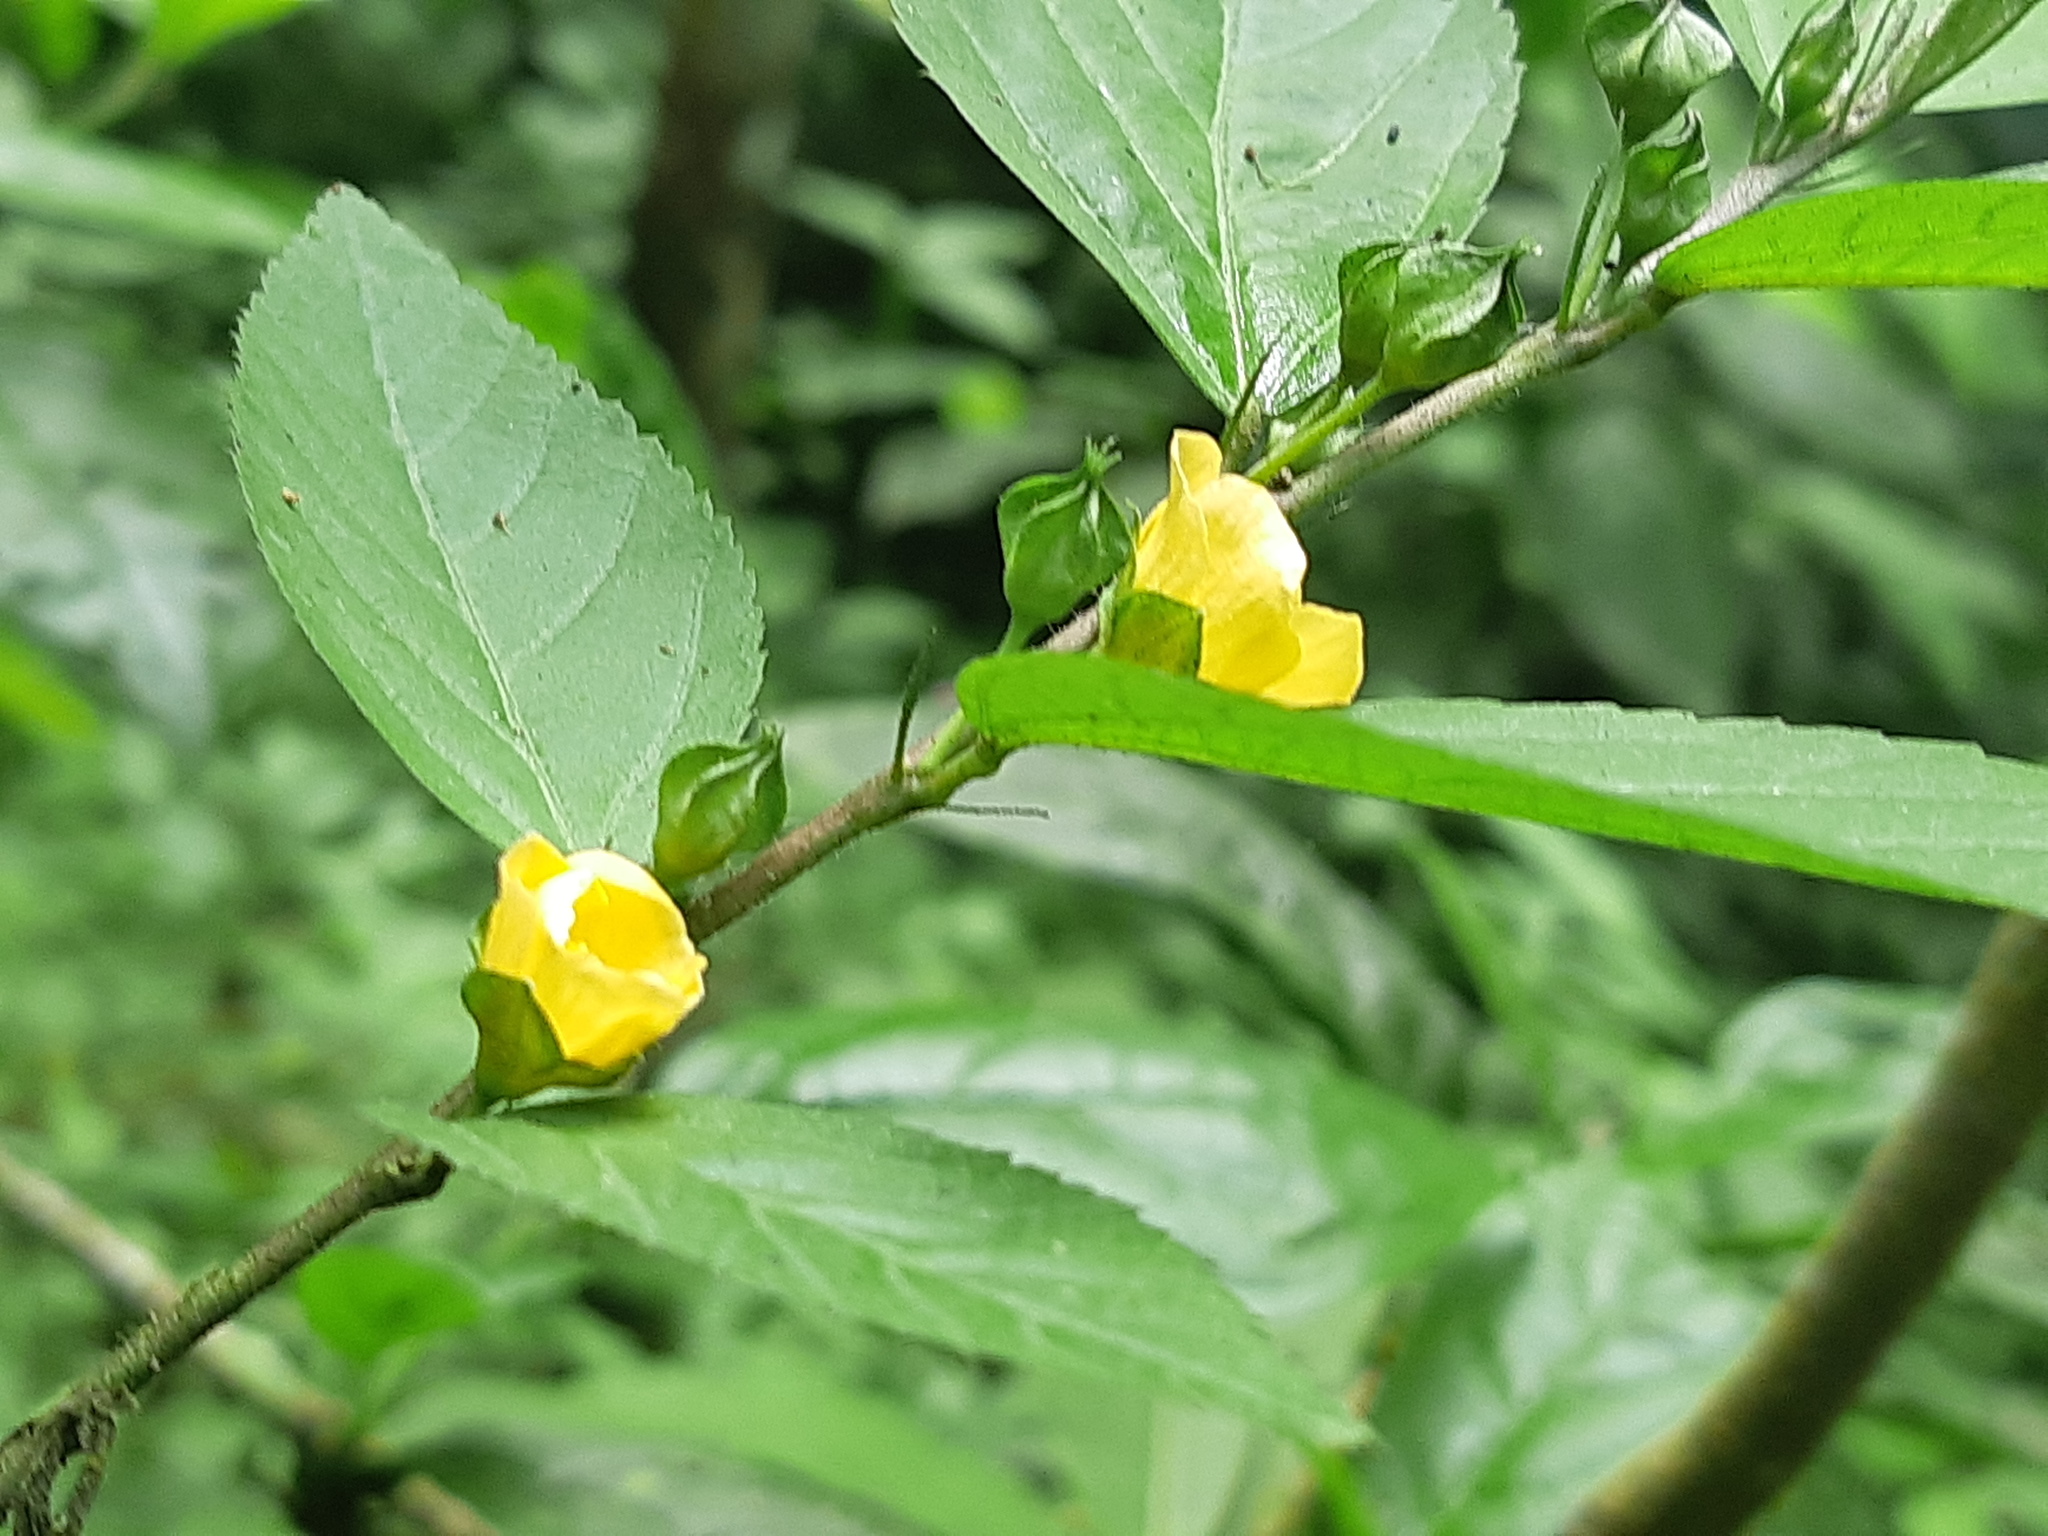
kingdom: Plantae
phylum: Tracheophyta
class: Magnoliopsida
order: Malvales
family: Malvaceae
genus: Sida
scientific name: Sida rhombifolia
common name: Queensland-hemp
